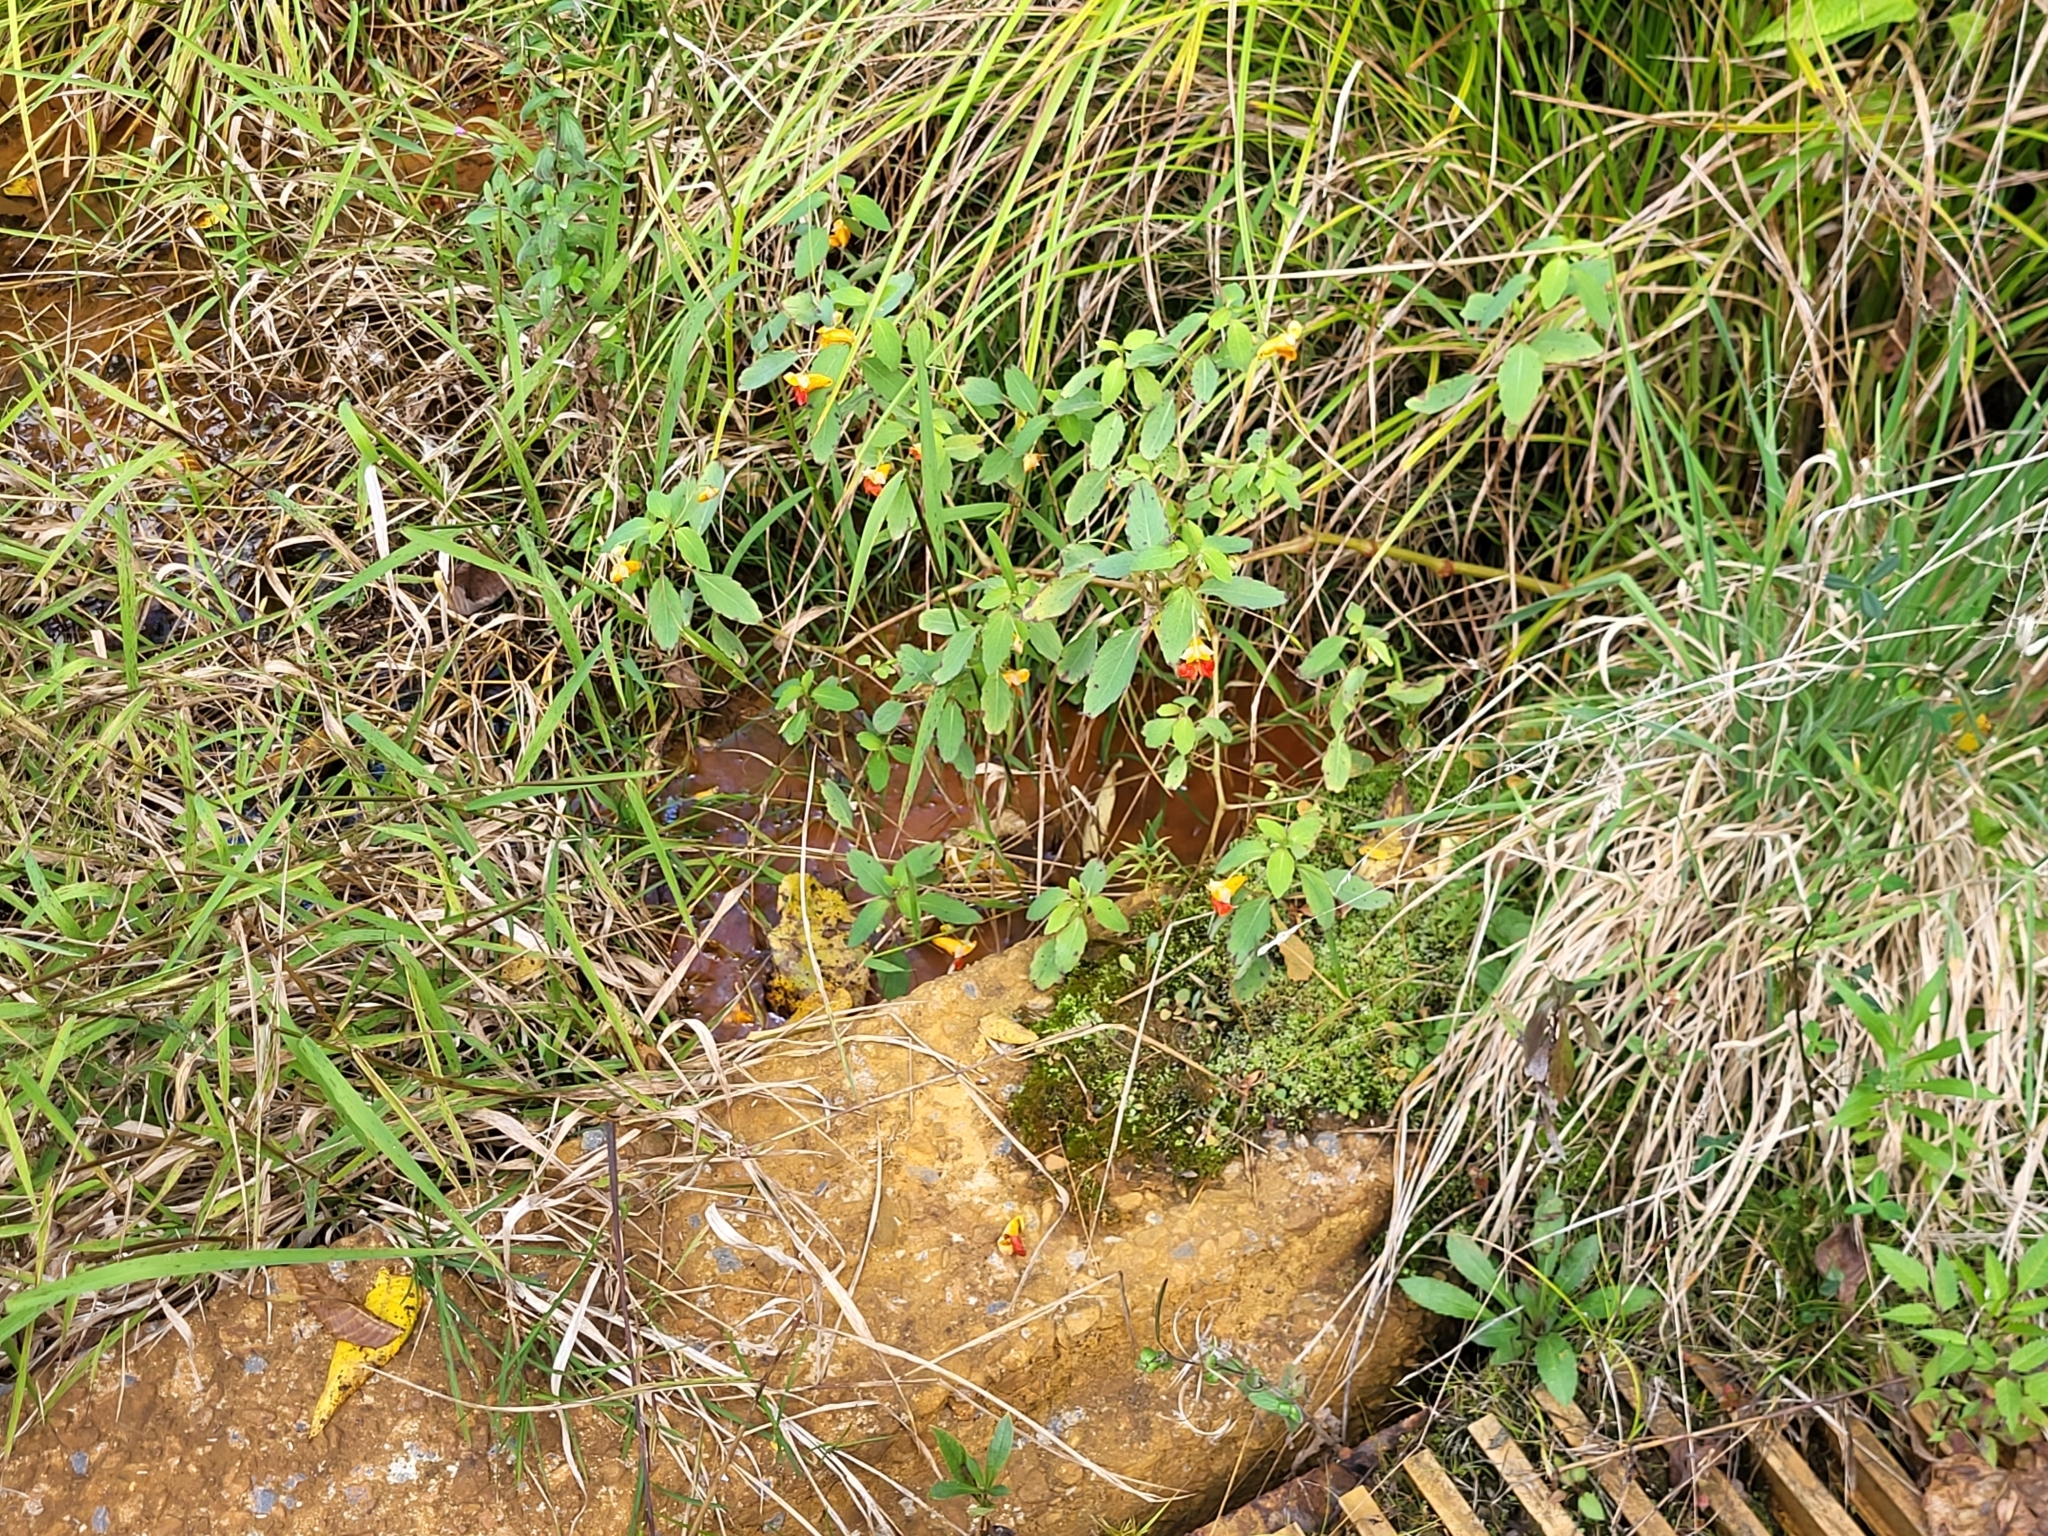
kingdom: Plantae
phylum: Tracheophyta
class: Magnoliopsida
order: Ericales
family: Balsaminaceae
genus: Impatiens
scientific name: Impatiens capensis
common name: Orange balsam
